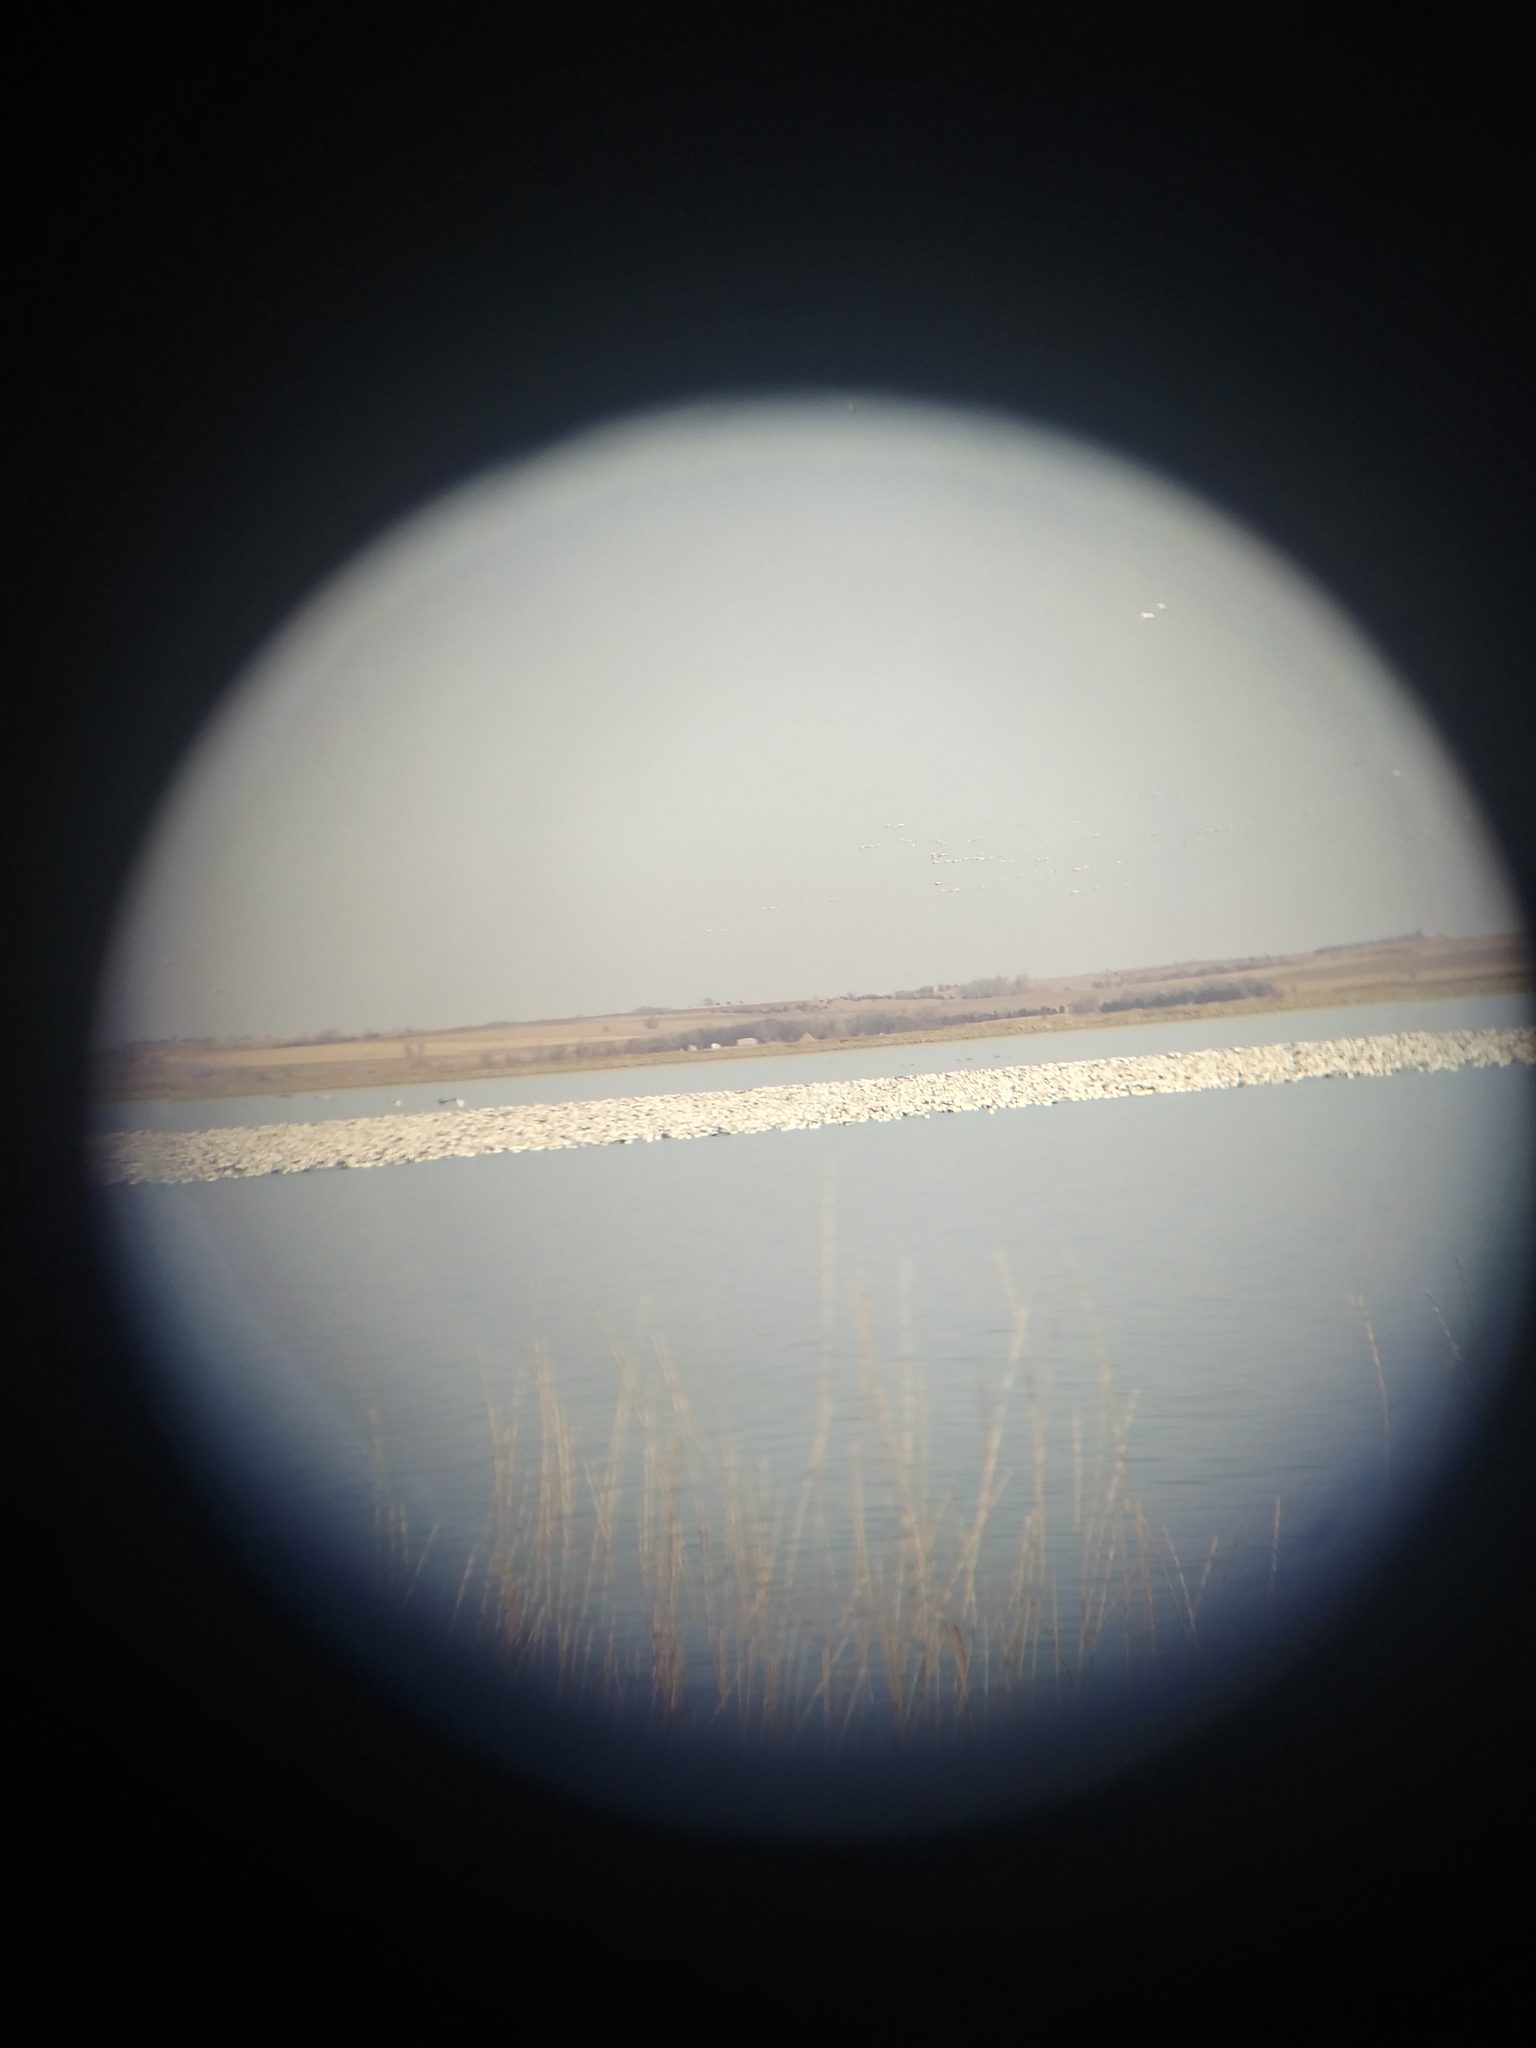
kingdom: Animalia
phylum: Chordata
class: Aves
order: Anseriformes
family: Anatidae
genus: Anser
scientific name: Anser caerulescens
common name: Snow goose
